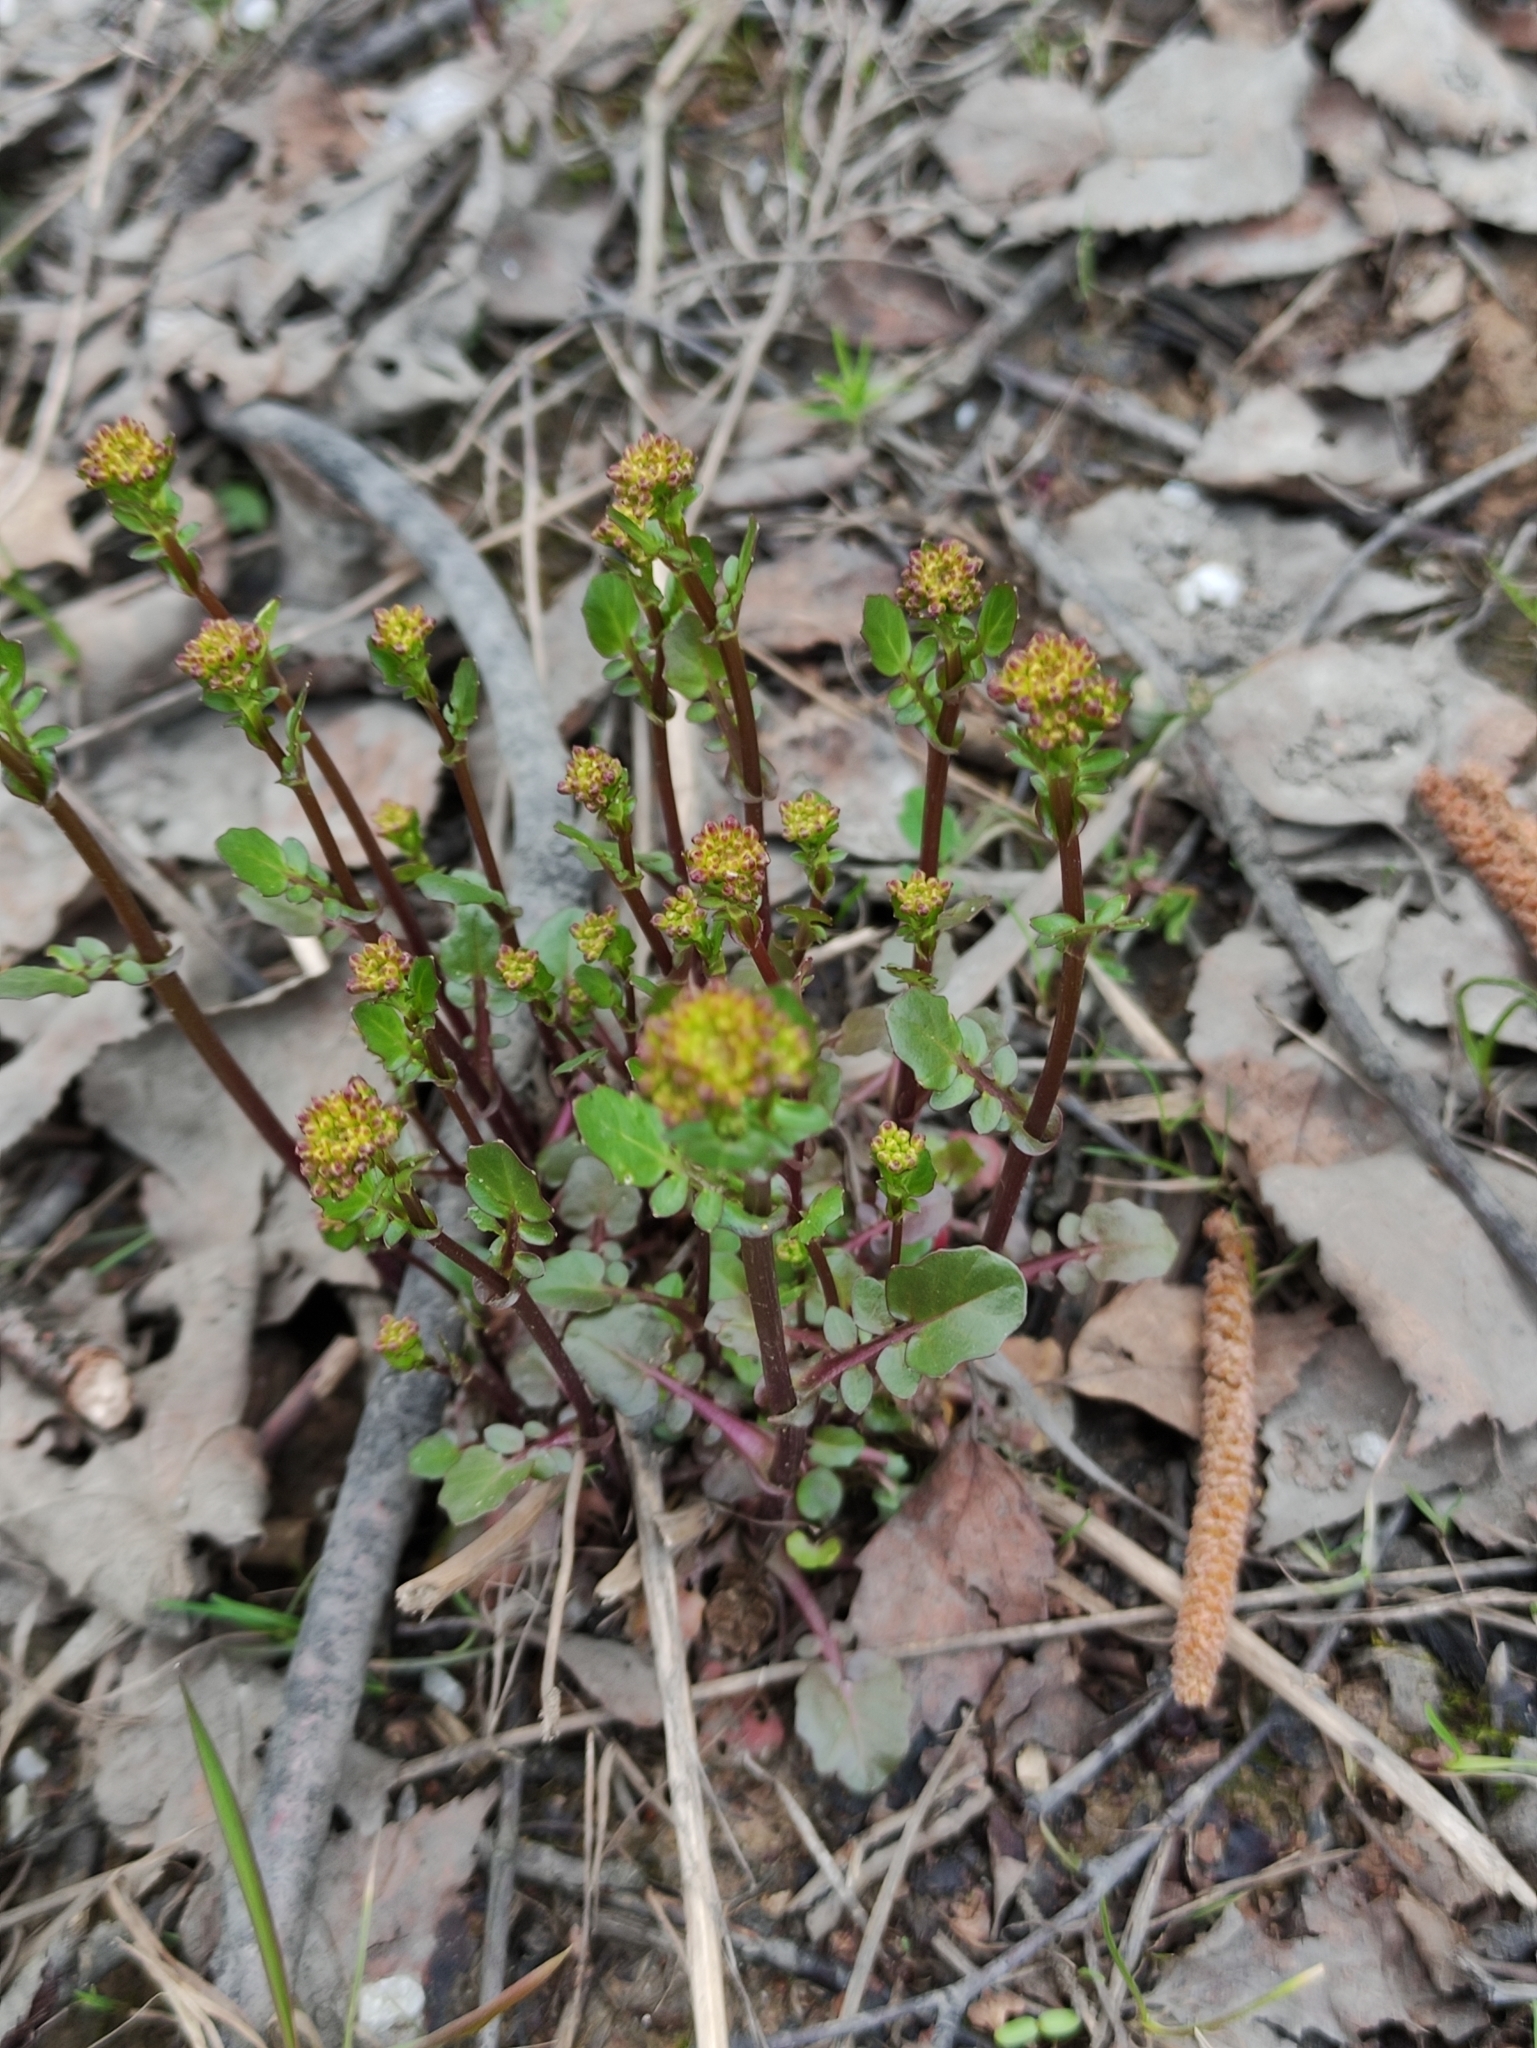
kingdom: Plantae
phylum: Tracheophyta
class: Magnoliopsida
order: Brassicales
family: Brassicaceae
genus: Barbarea
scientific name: Barbarea vulgaris
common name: Cressy-greens
